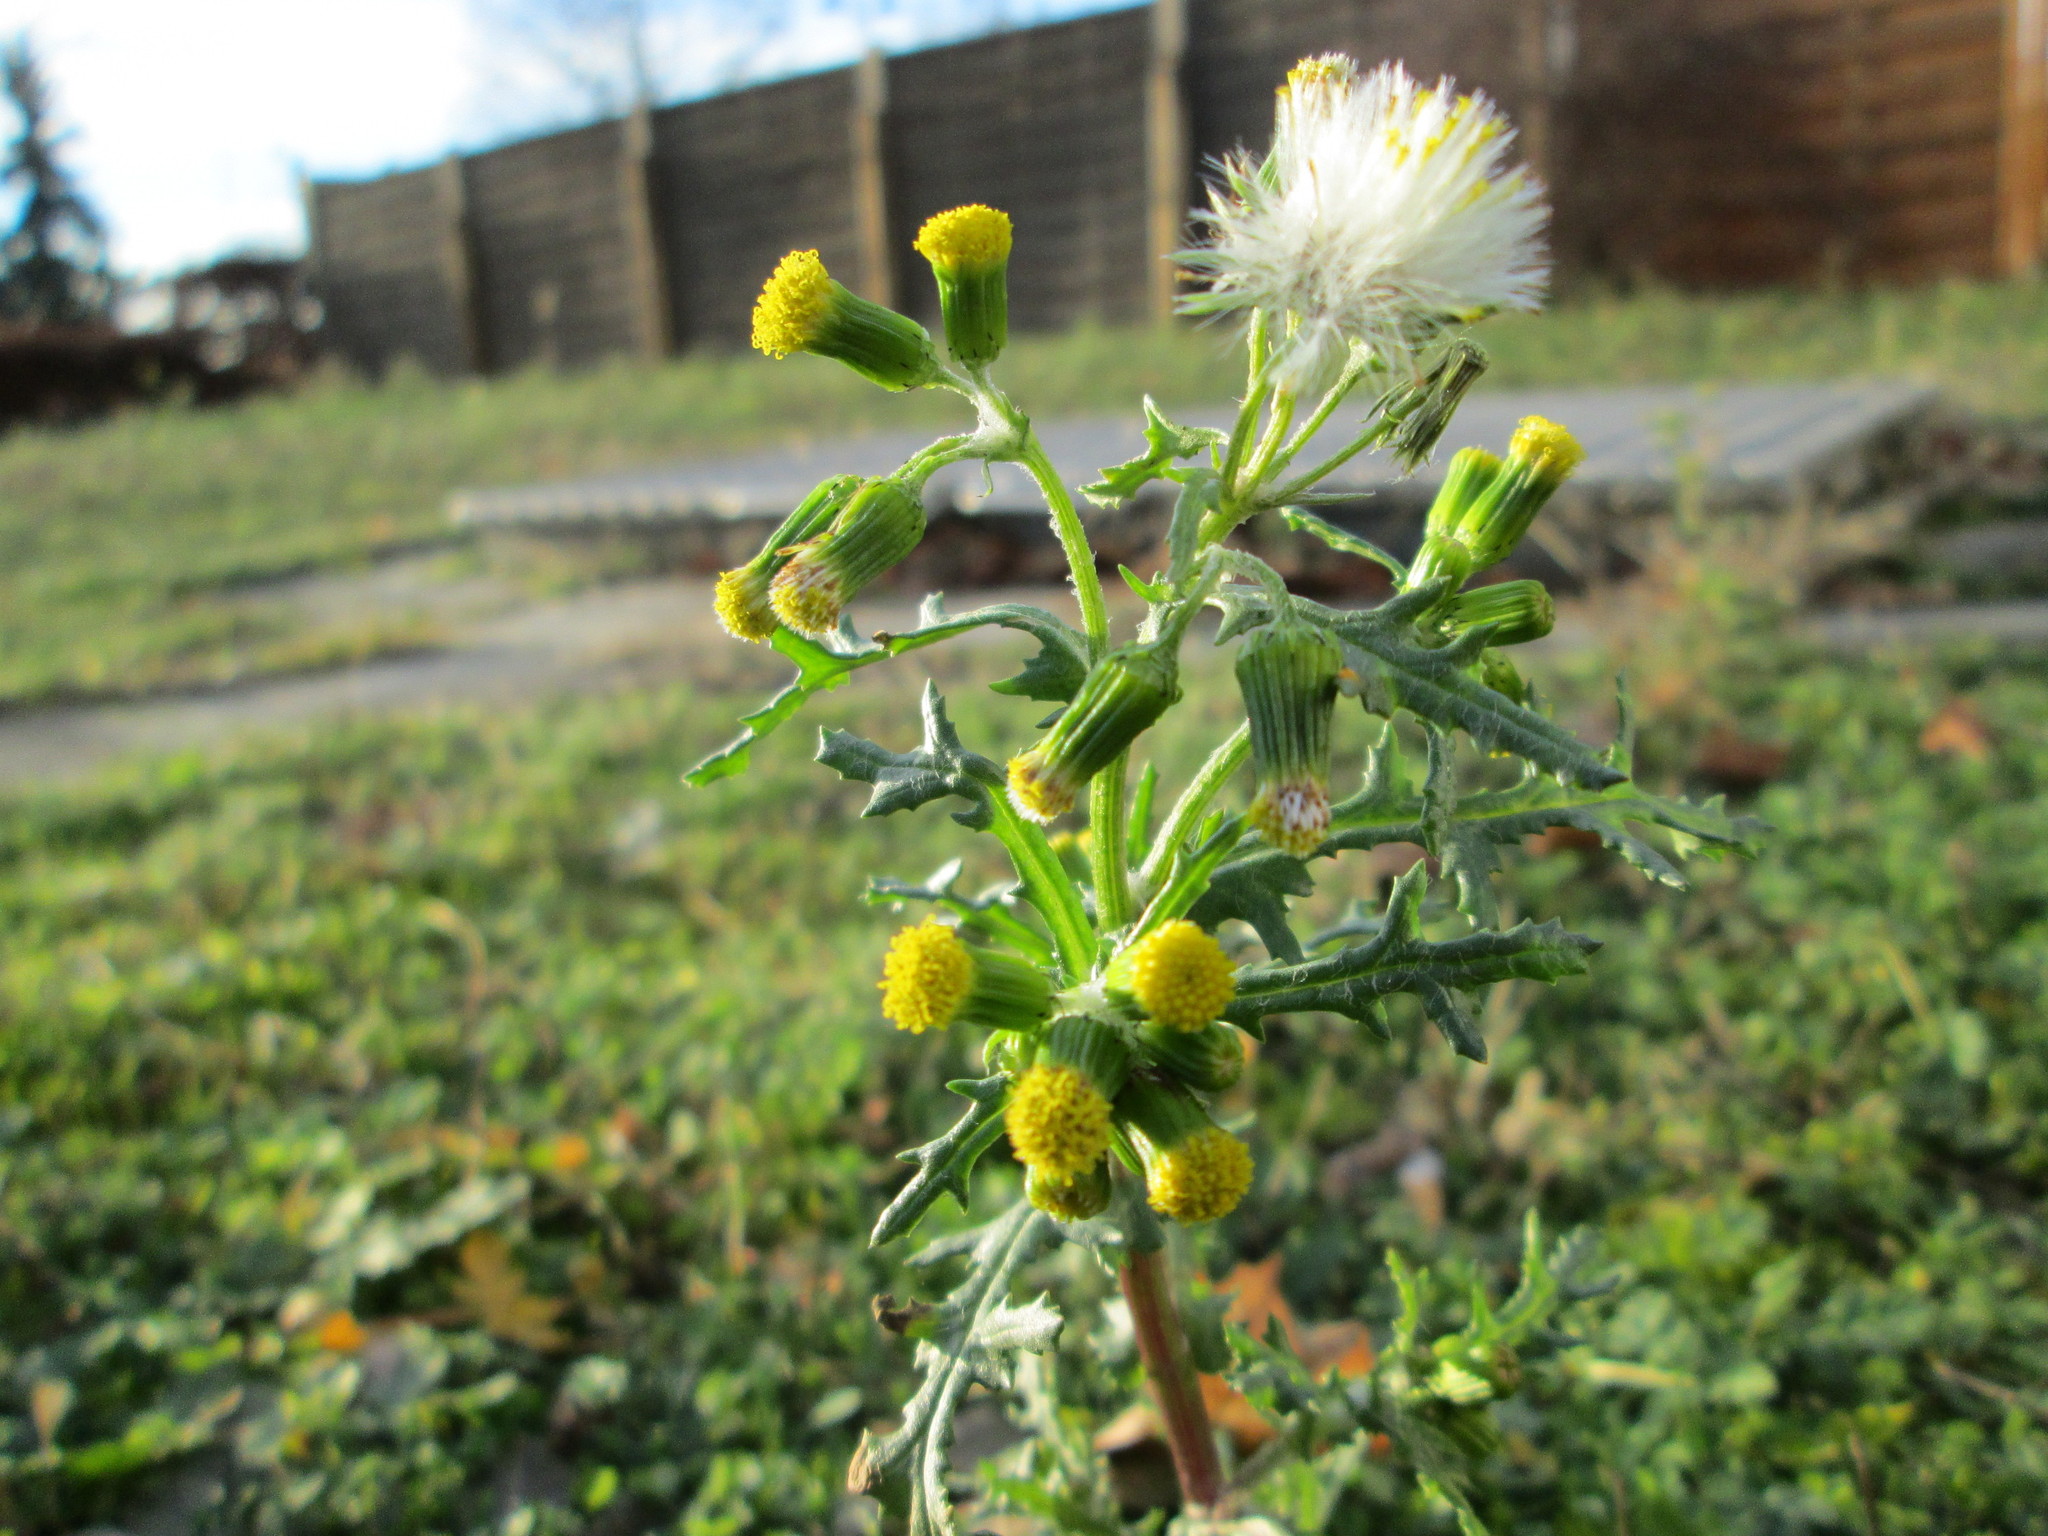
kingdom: Plantae
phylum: Tracheophyta
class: Magnoliopsida
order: Asterales
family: Asteraceae
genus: Senecio
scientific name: Senecio vulgaris
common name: Old-man-in-the-spring
